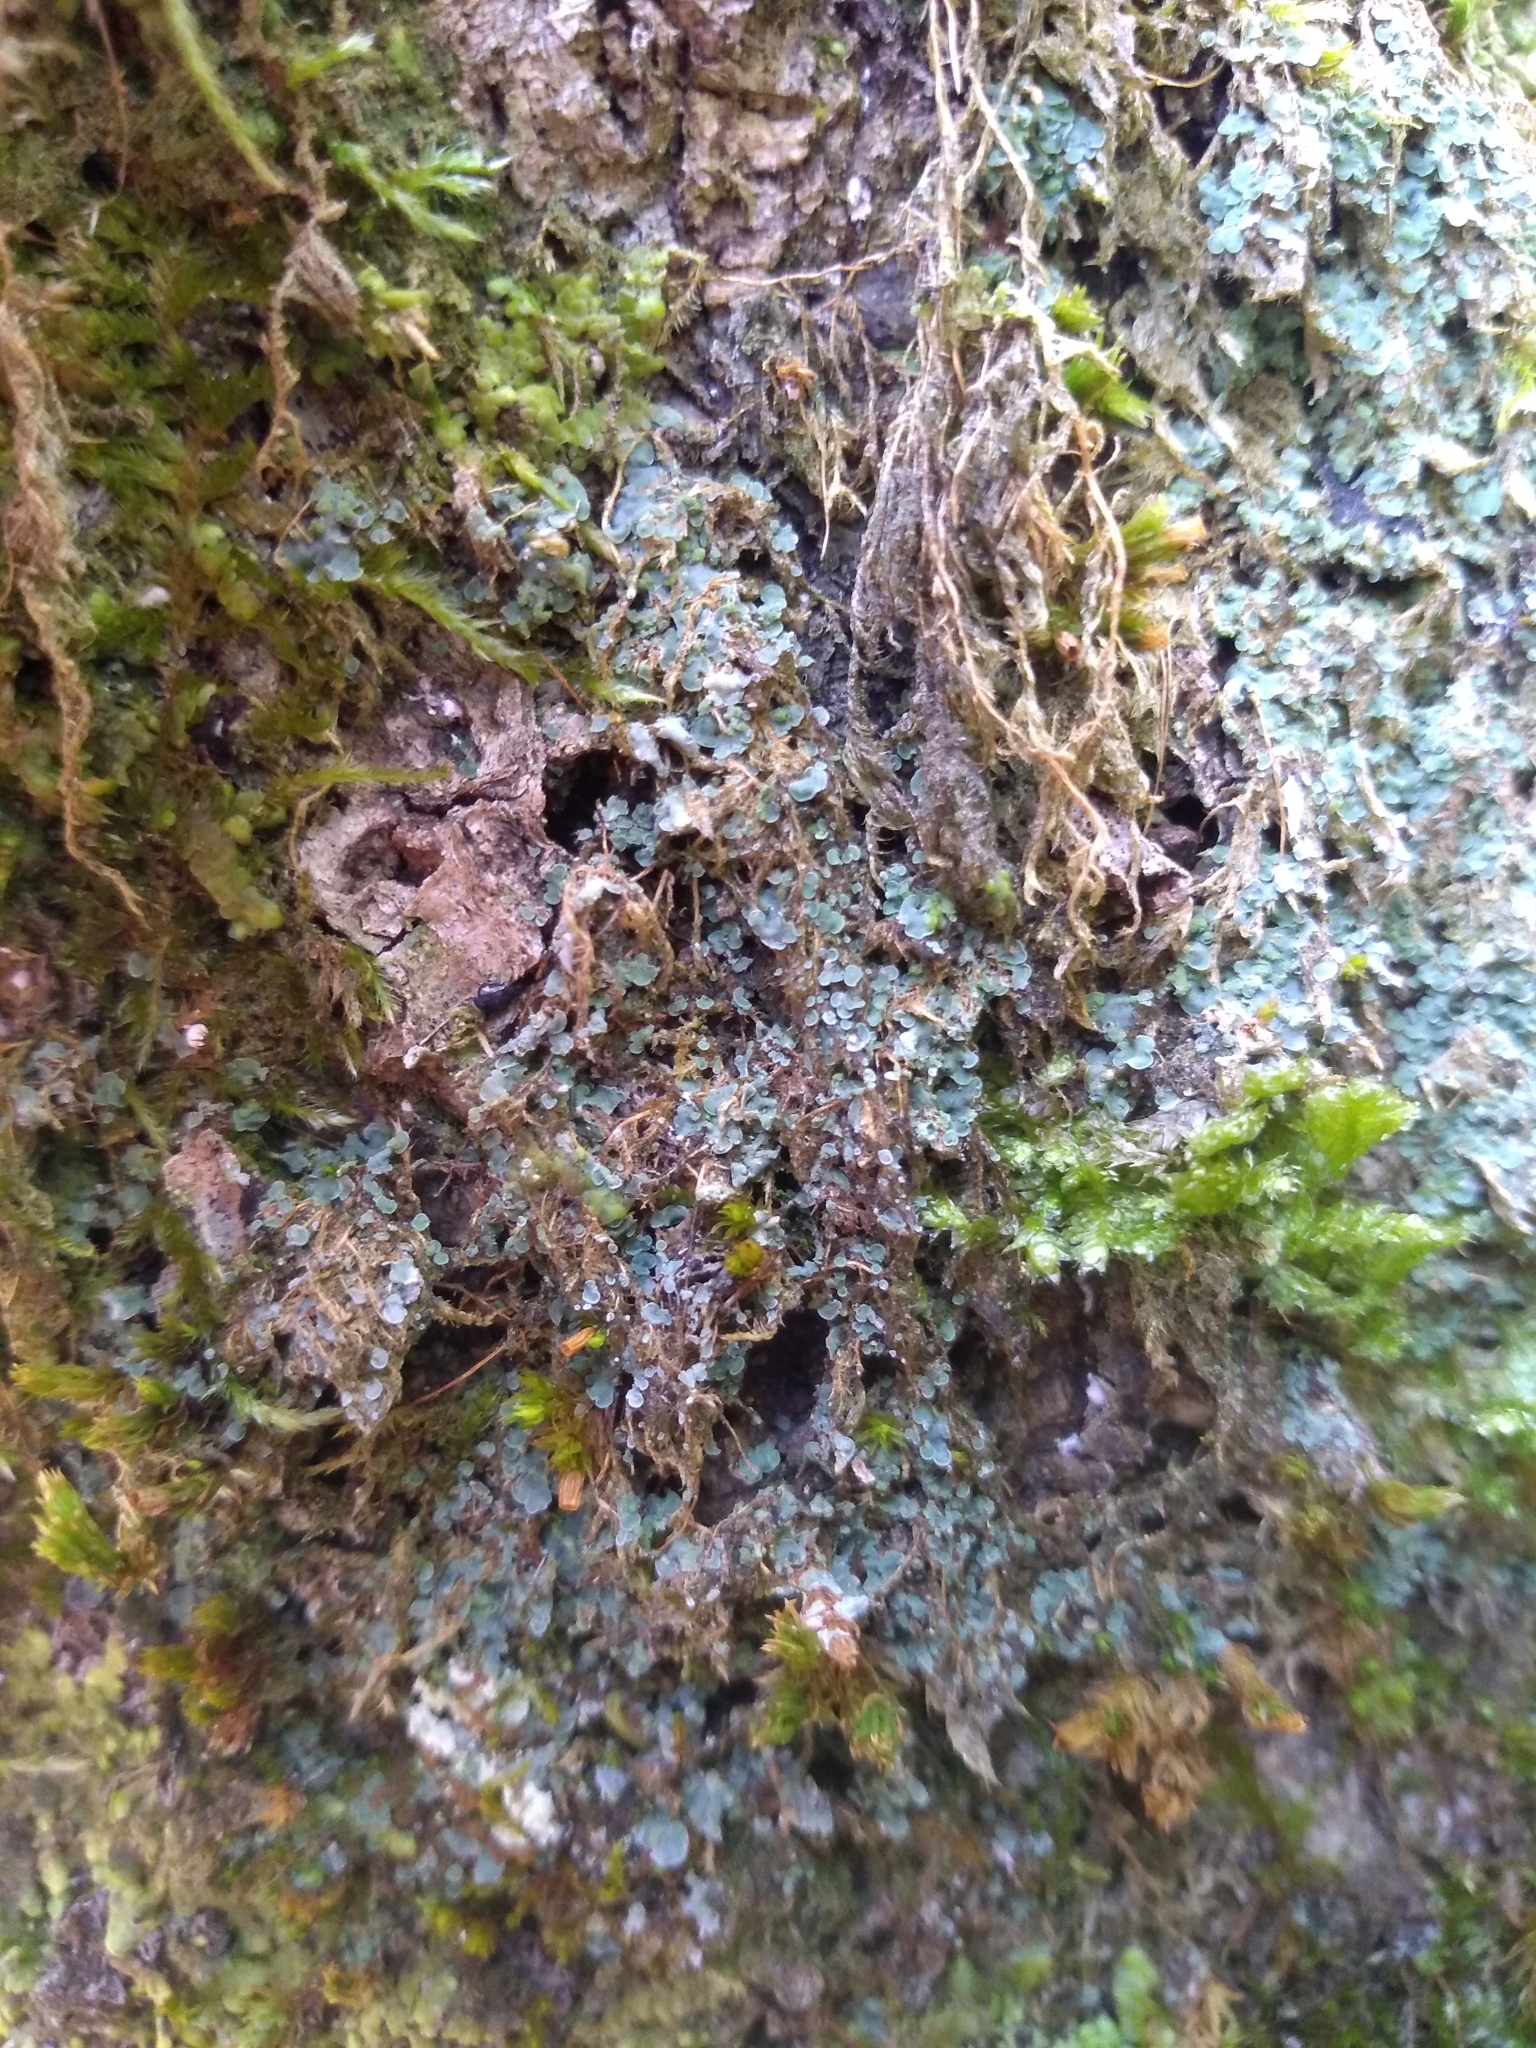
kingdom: Fungi
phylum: Ascomycota
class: Eurotiomycetes
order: Verrucariales
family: Verrucariaceae
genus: Normandina
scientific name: Normandina pulchella
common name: Elf ears lichen
